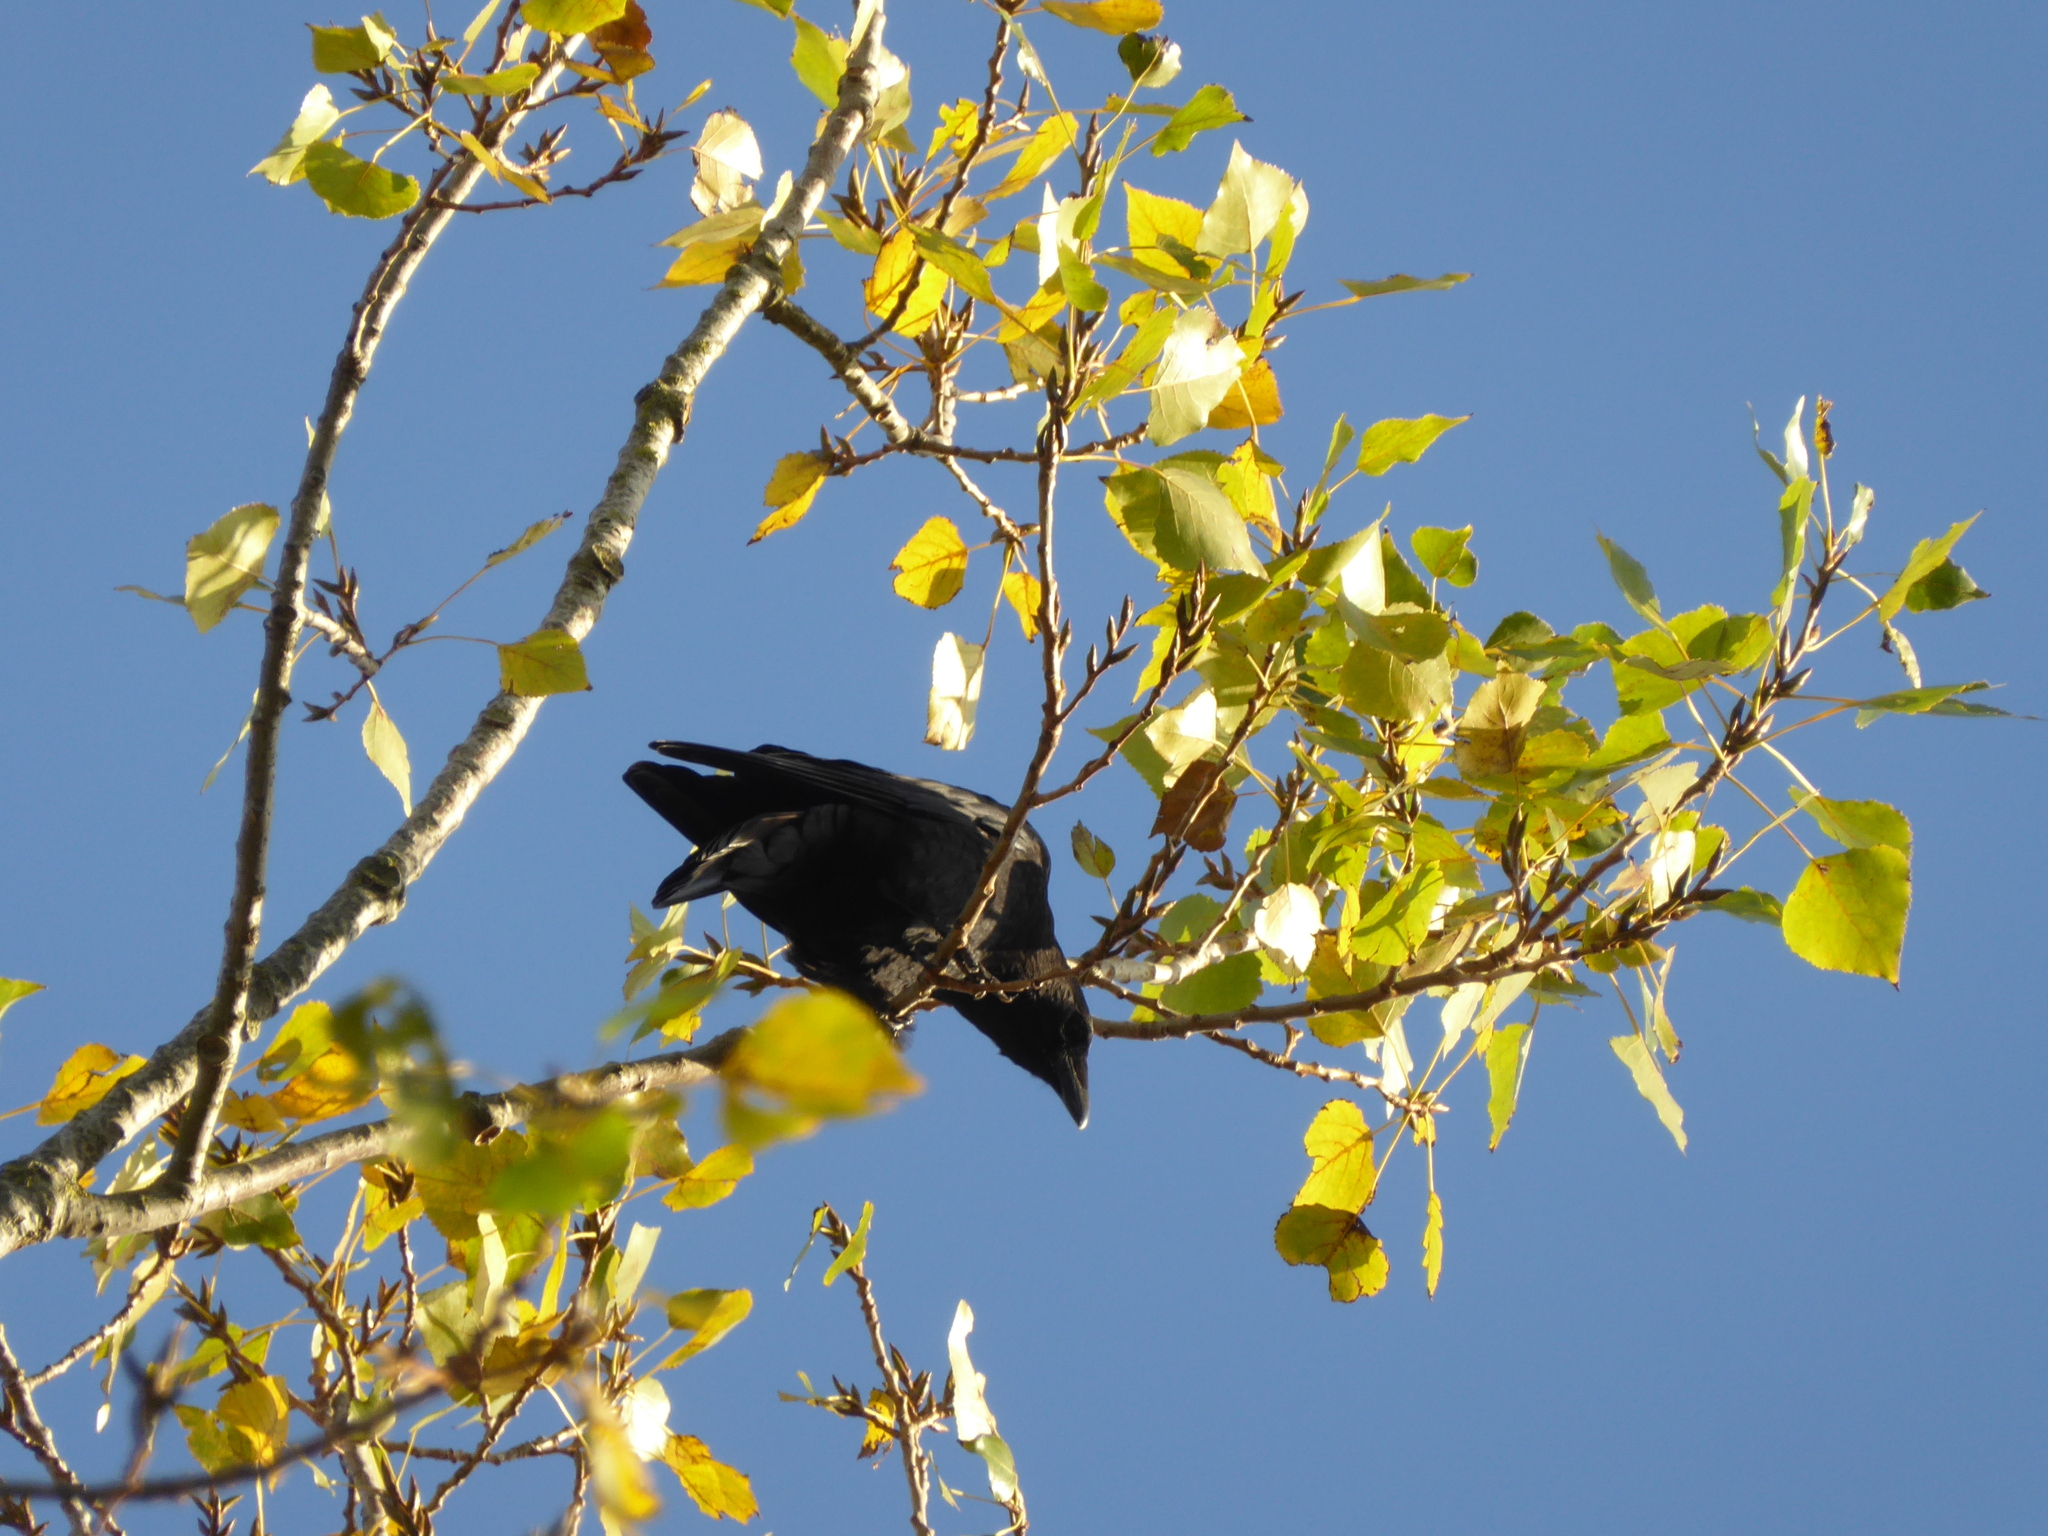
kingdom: Animalia
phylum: Chordata
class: Aves
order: Passeriformes
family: Corvidae
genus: Corvus
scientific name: Corvus corone
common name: Carrion crow
